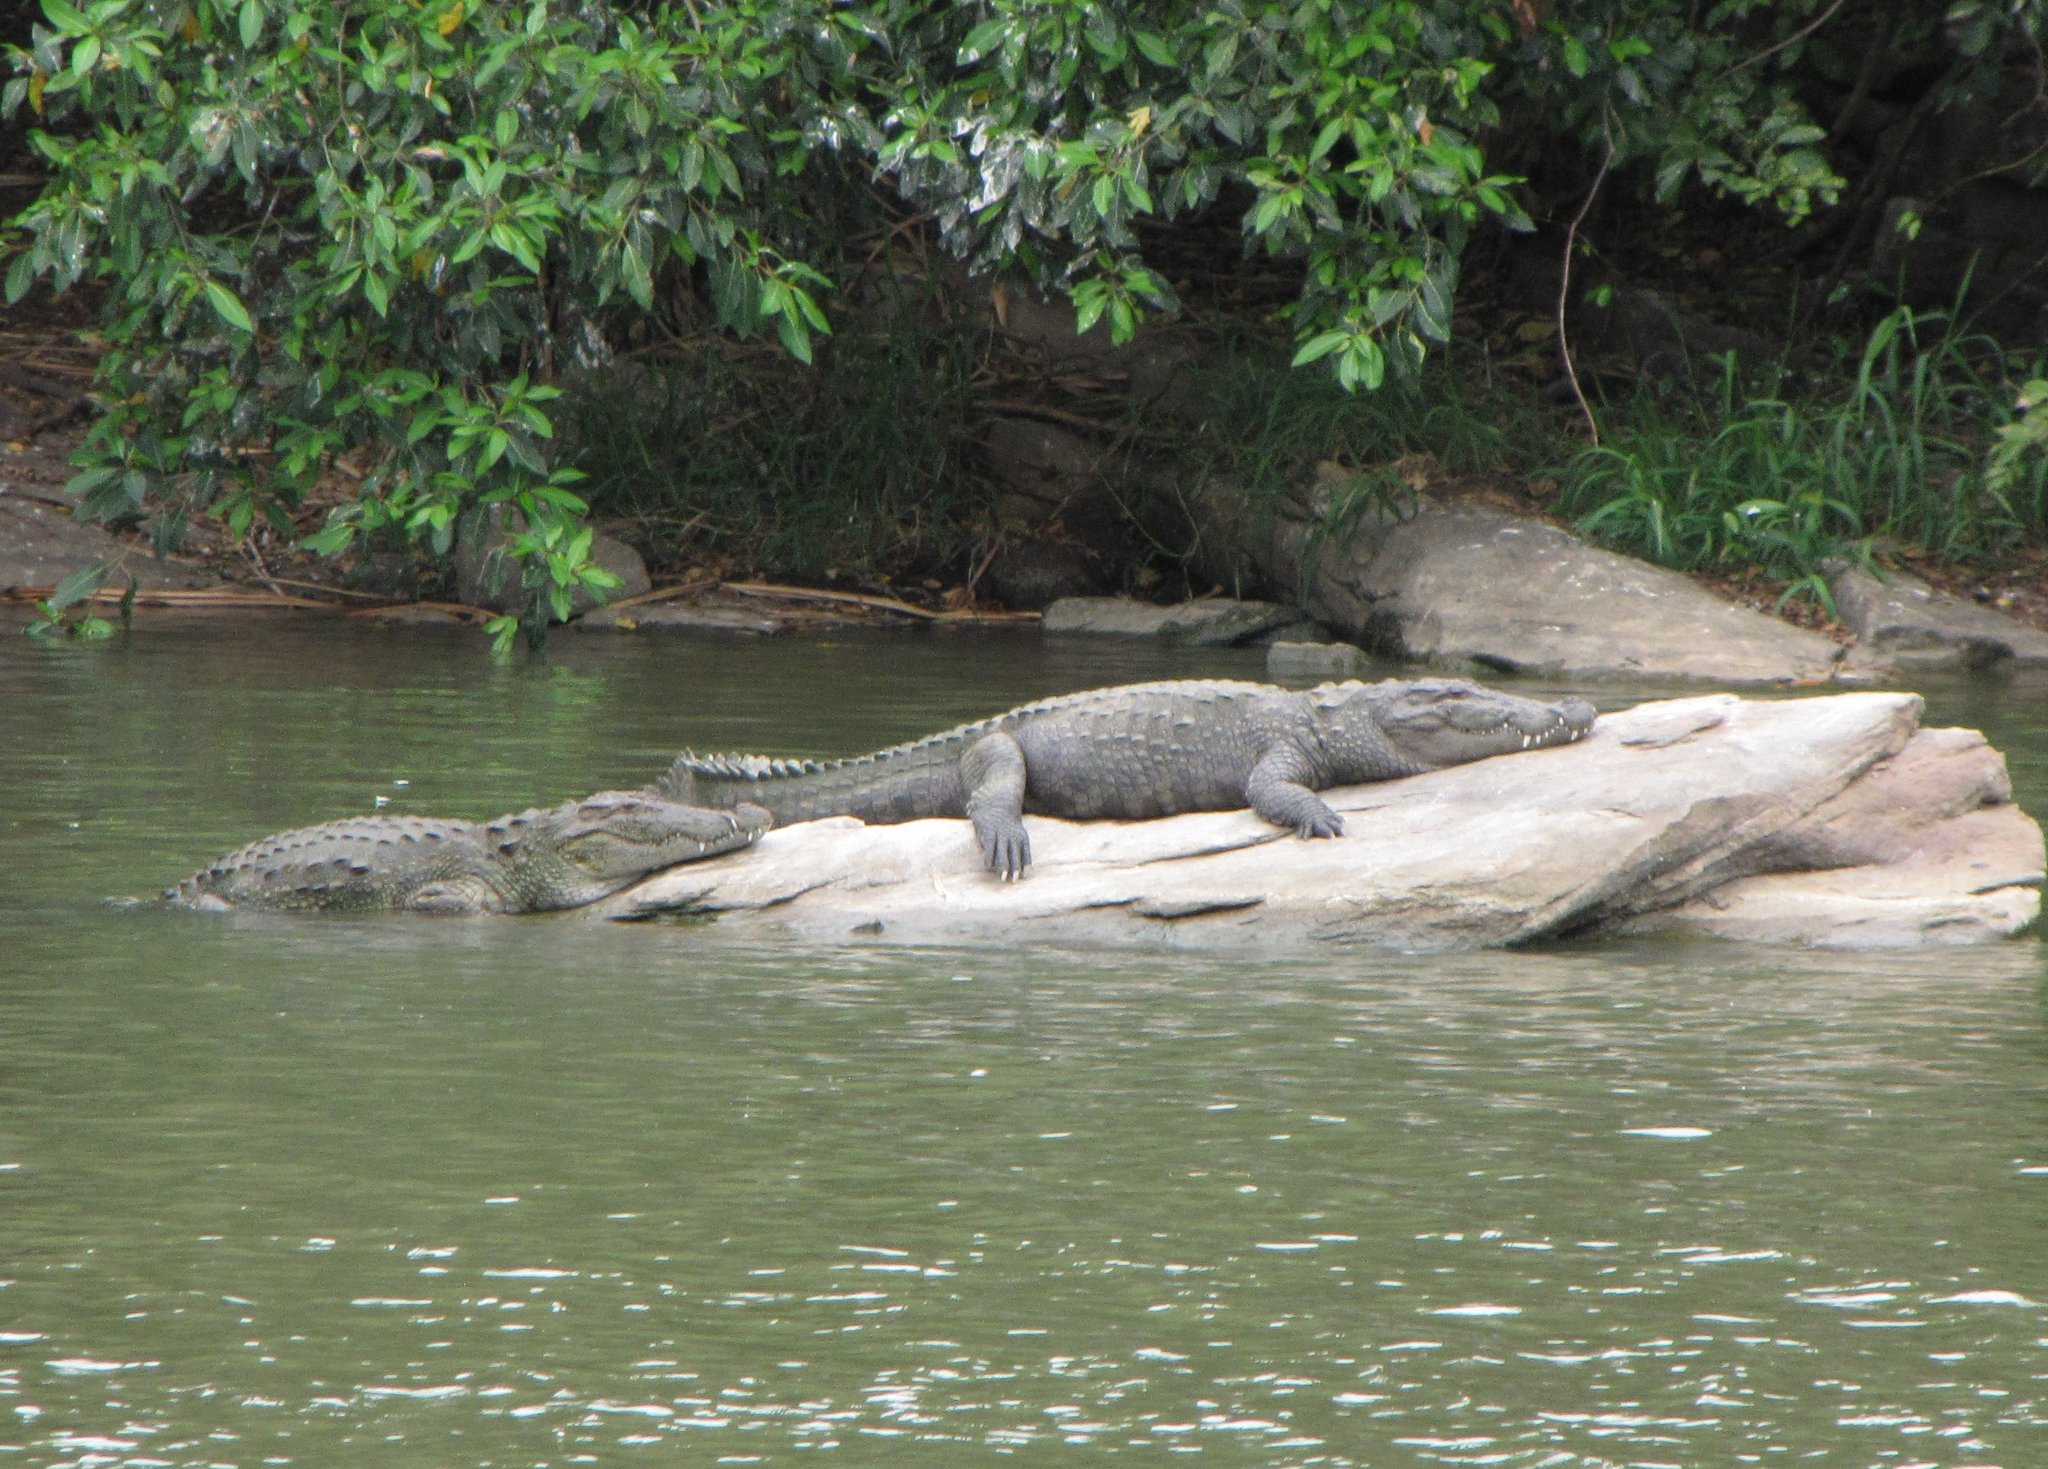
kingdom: Animalia
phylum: Chordata
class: Crocodylia
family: Crocodylidae
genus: Crocodylus
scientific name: Crocodylus palustris
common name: Mugger crocodile
